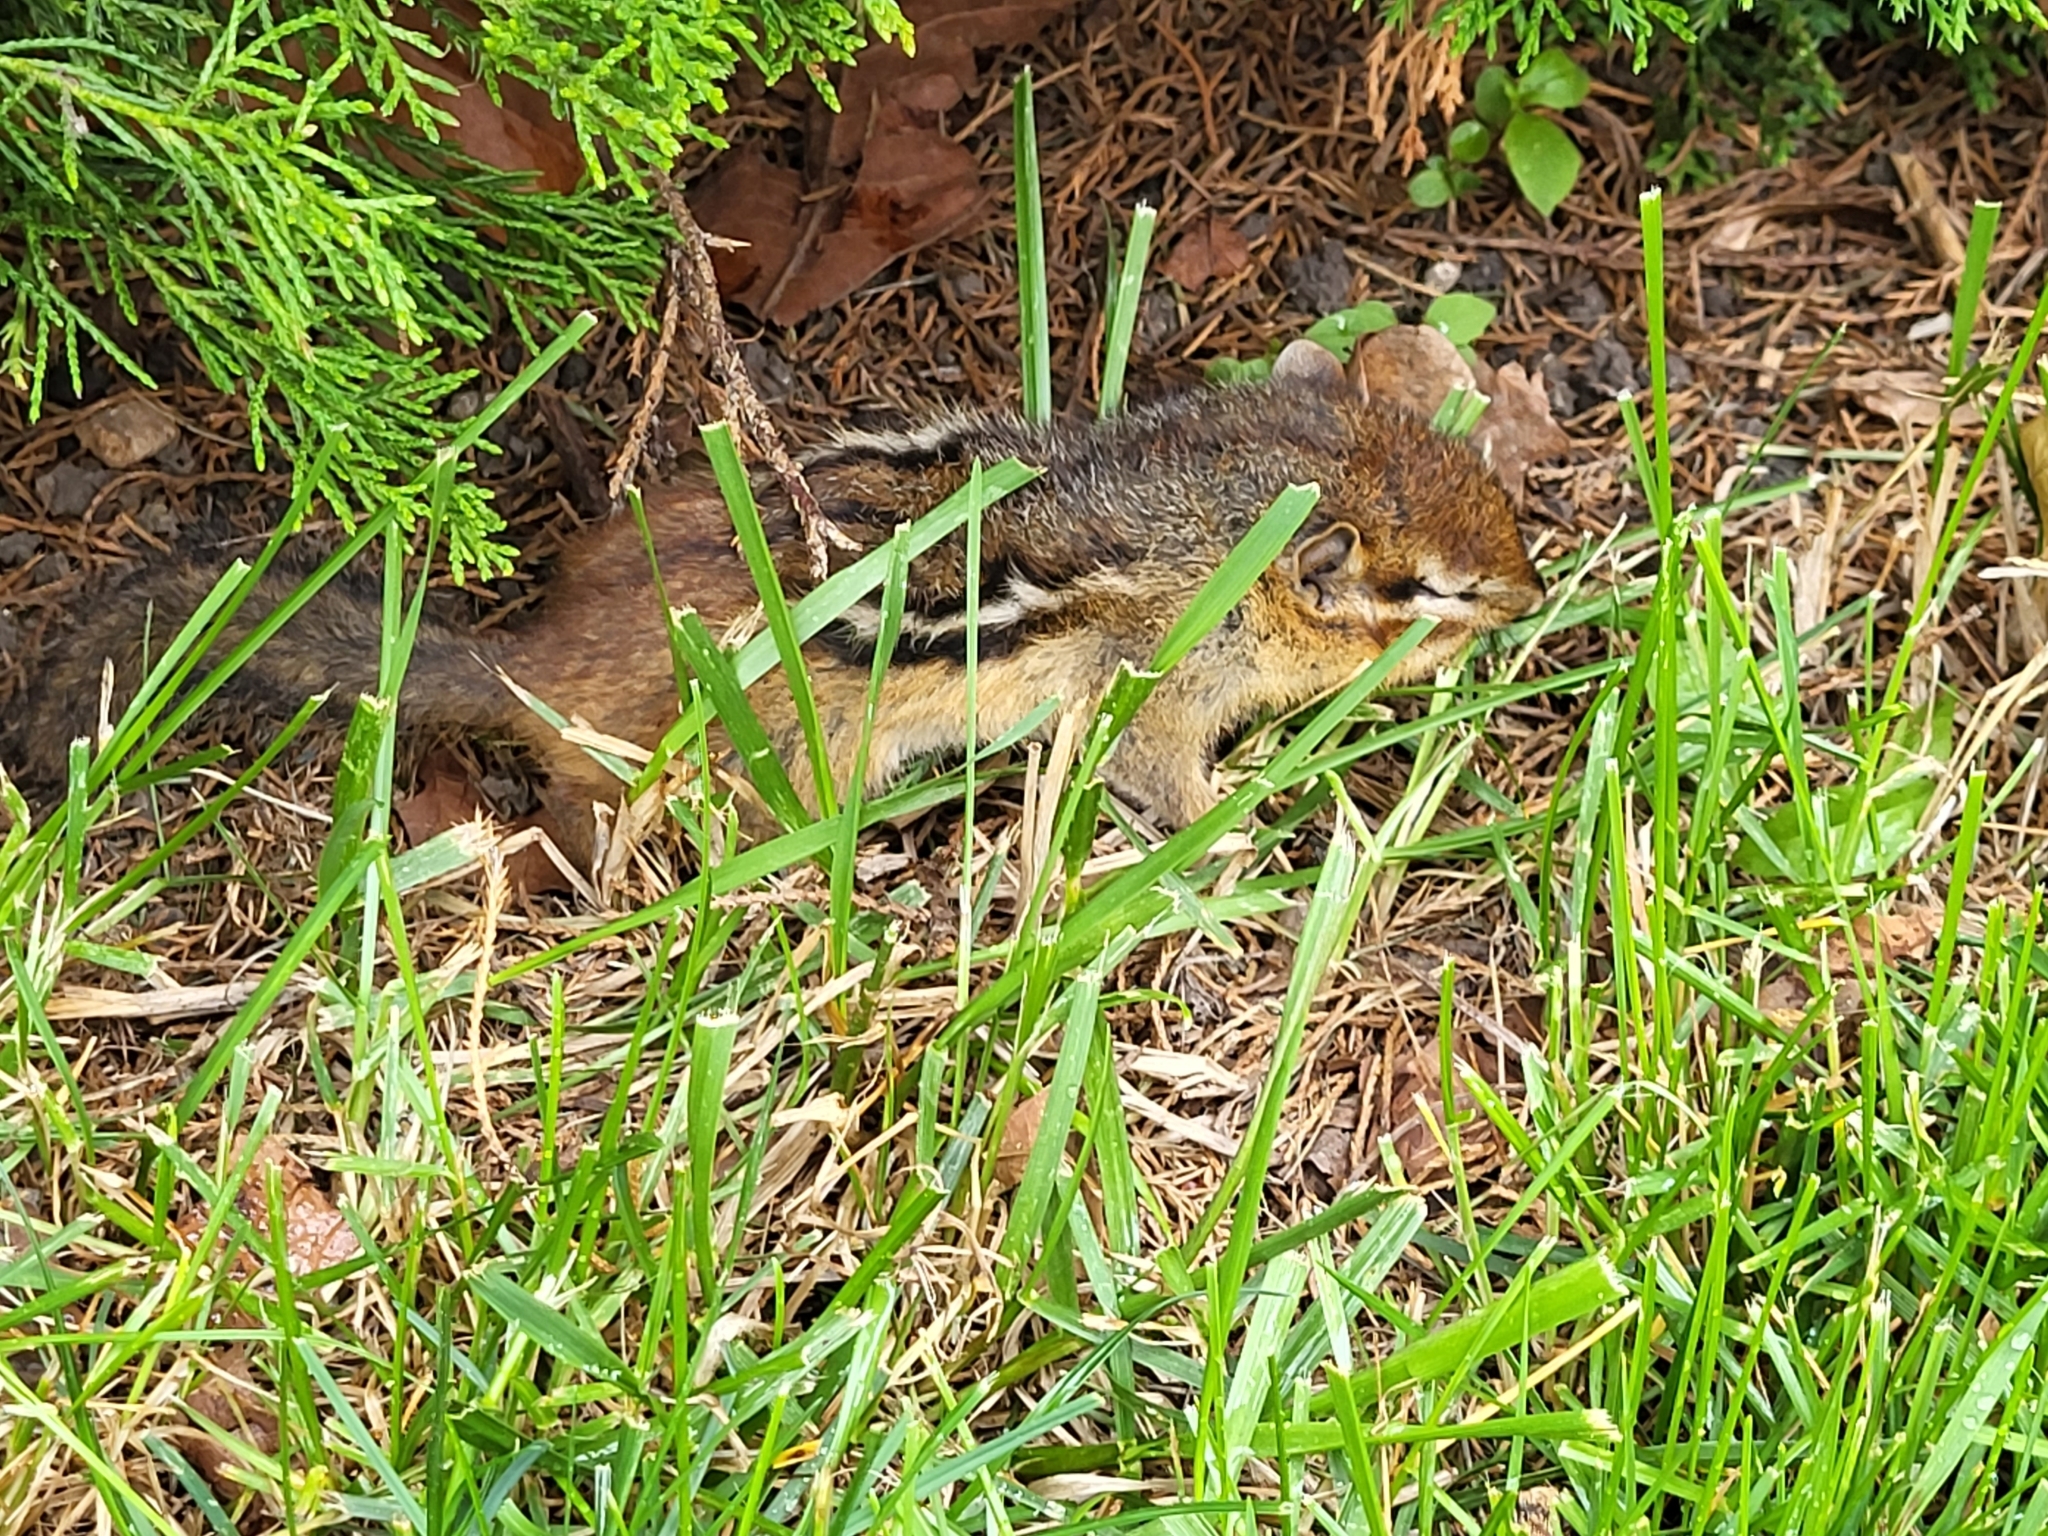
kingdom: Animalia
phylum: Chordata
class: Mammalia
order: Rodentia
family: Sciuridae
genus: Tamias
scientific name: Tamias striatus
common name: Eastern chipmunk
